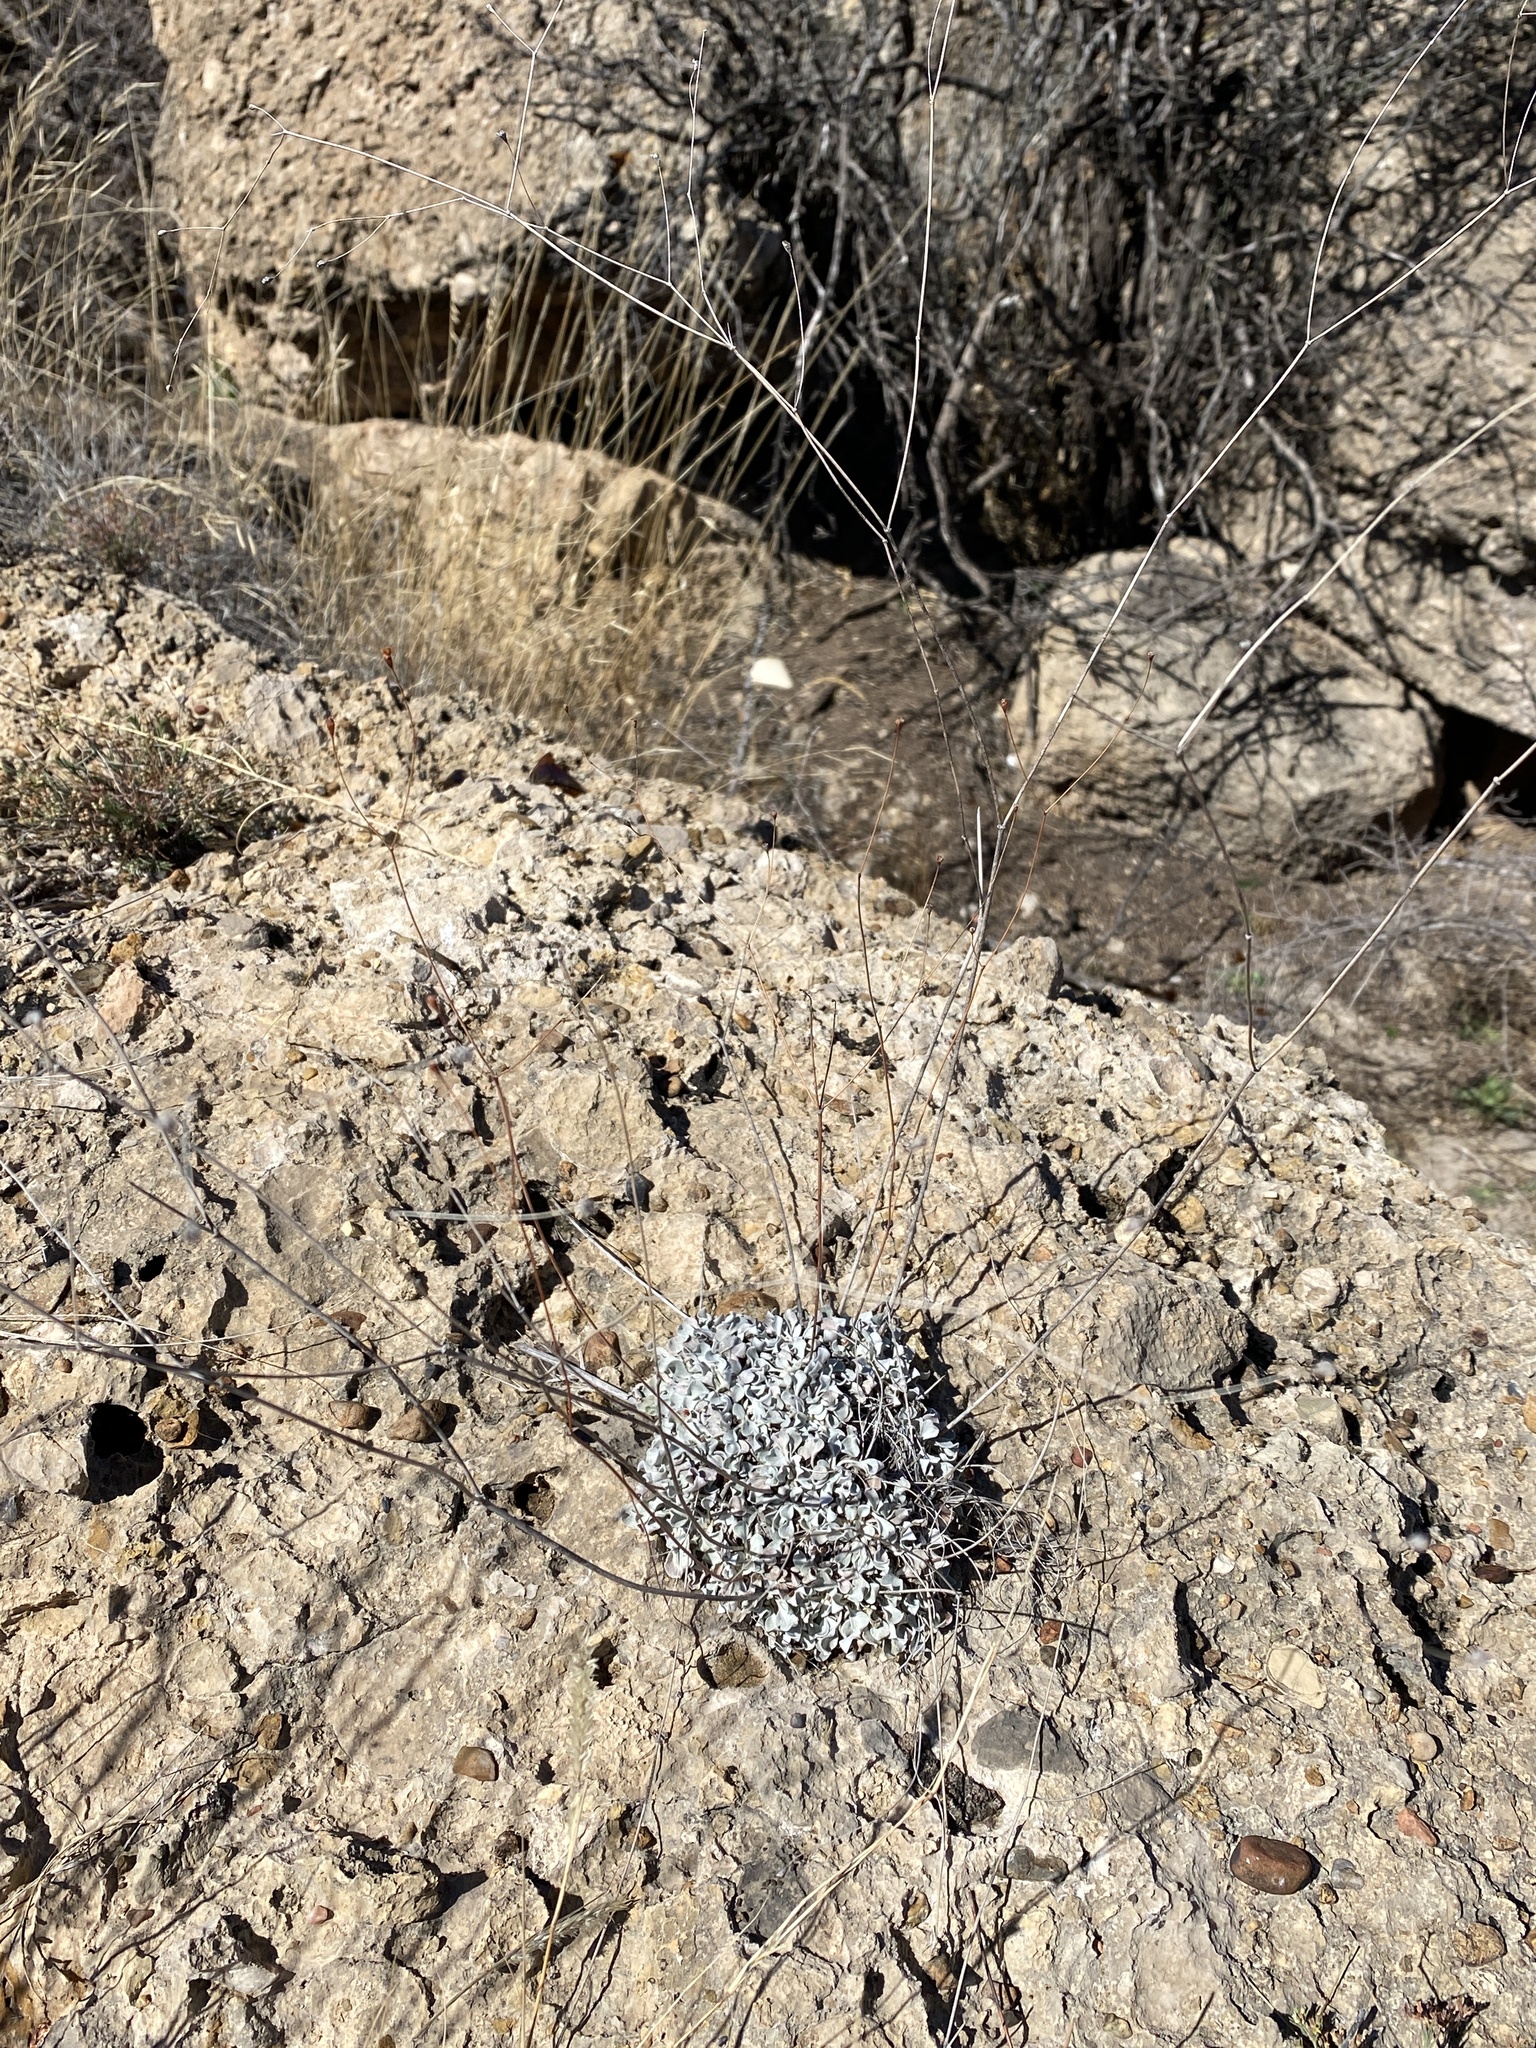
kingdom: Plantae
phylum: Tracheophyta
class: Magnoliopsida
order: Caryophyllales
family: Polygonaceae
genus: Eriogonum
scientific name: Eriogonum tenellum
